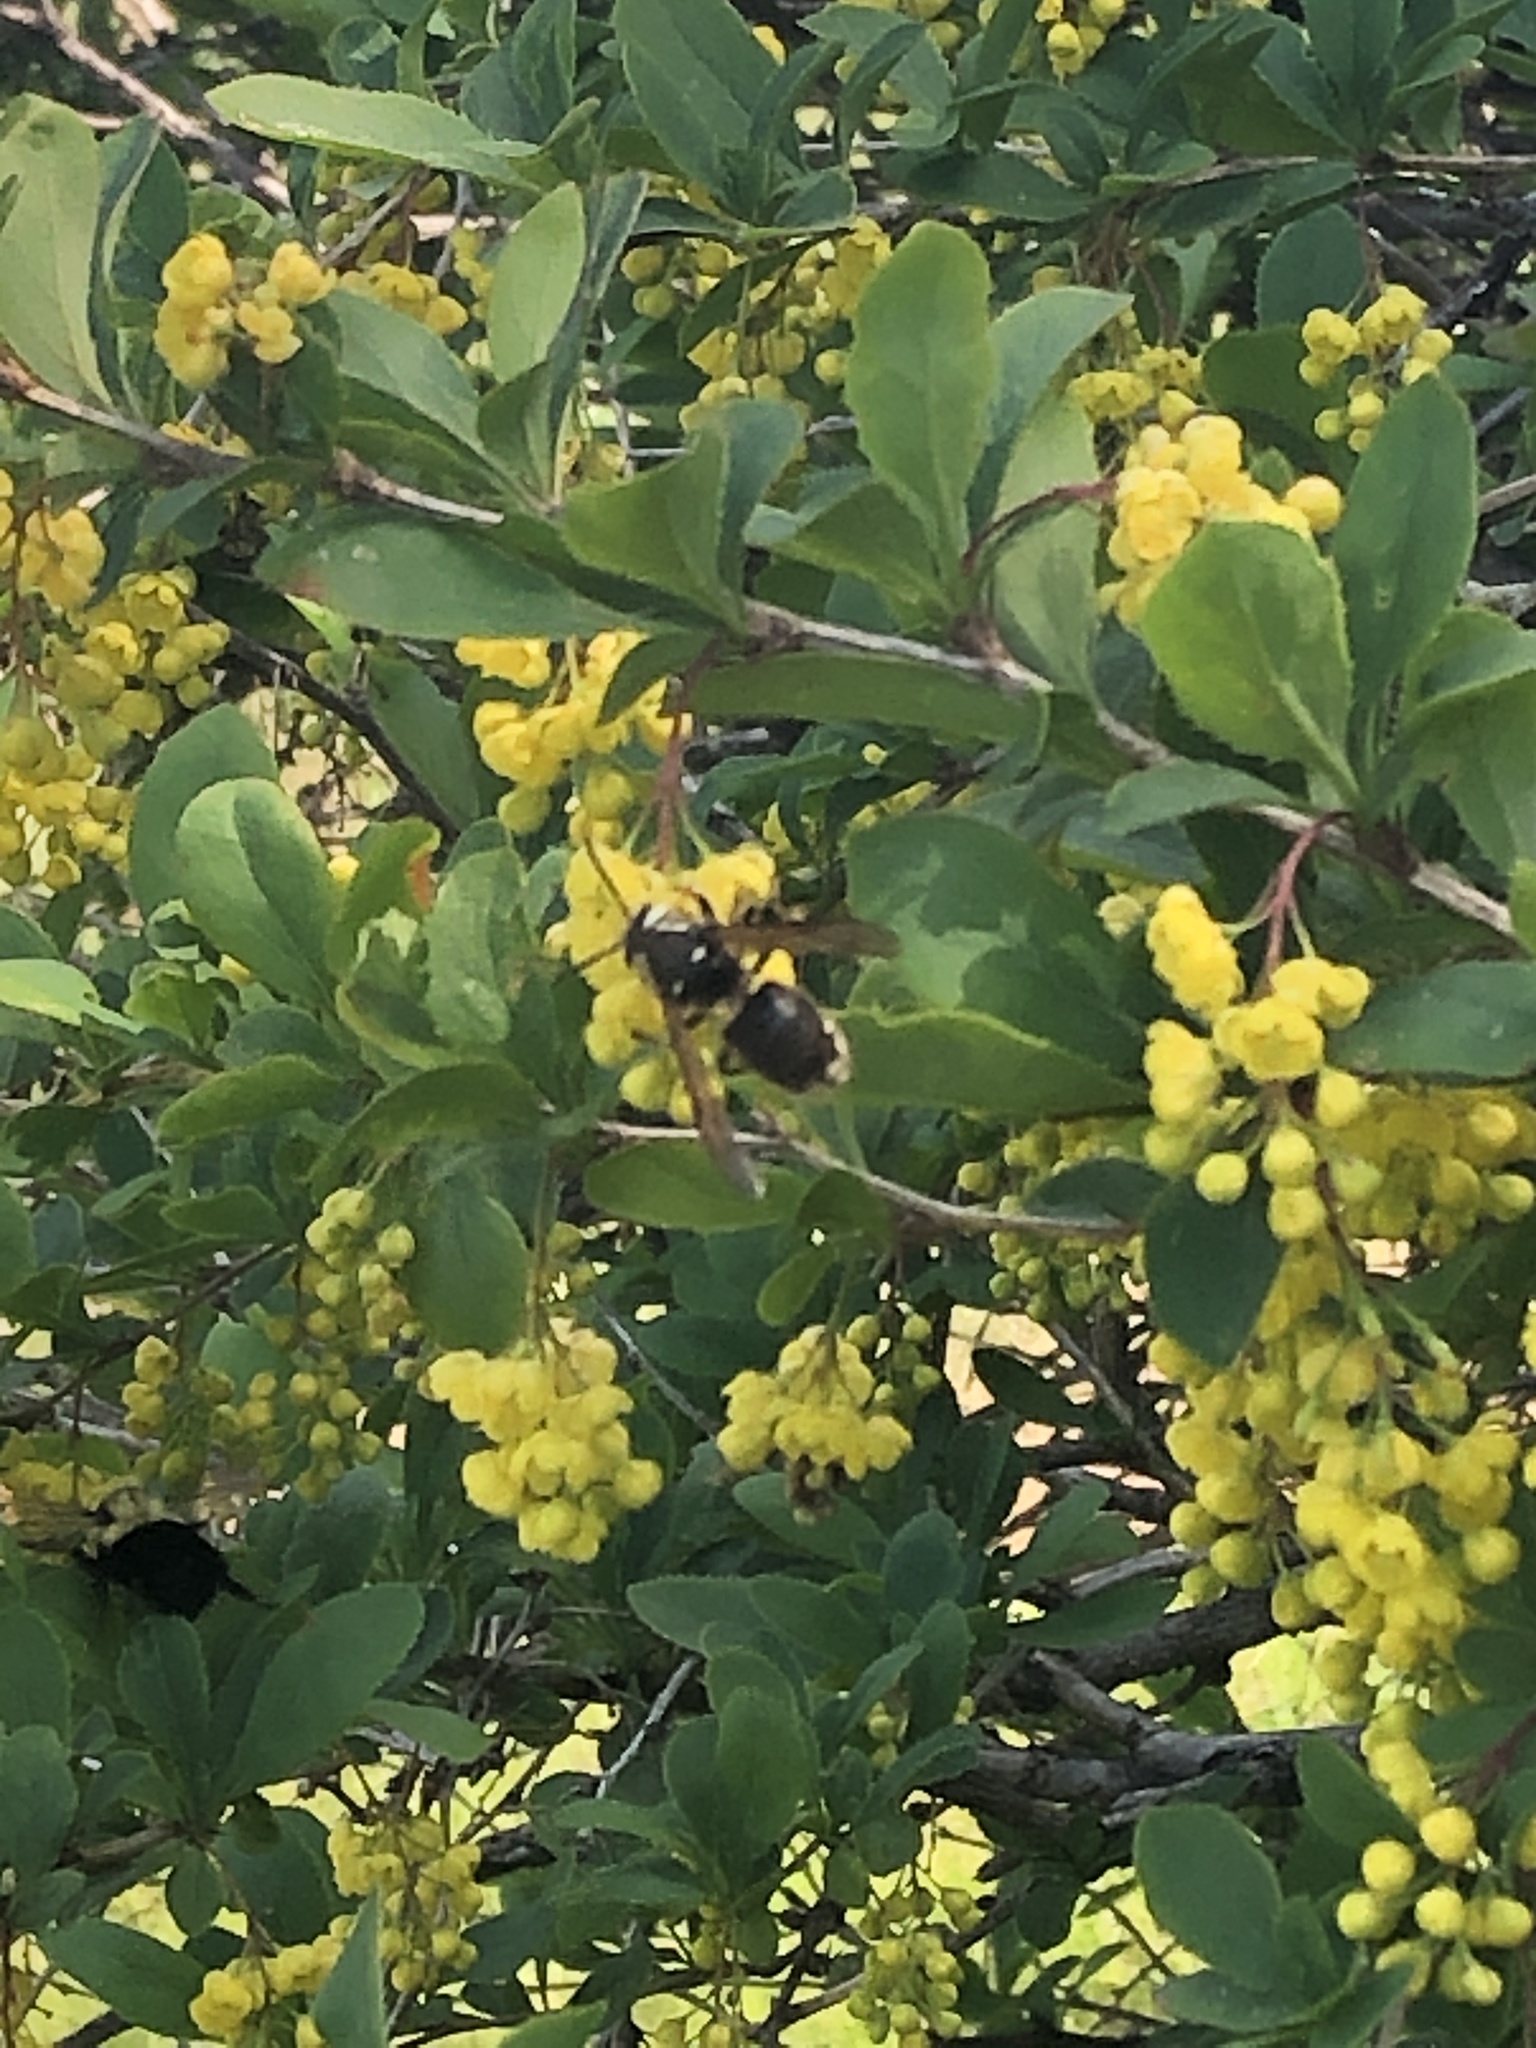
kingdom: Animalia
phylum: Arthropoda
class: Insecta
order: Hymenoptera
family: Vespidae
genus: Dolichovespula
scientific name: Dolichovespula maculata
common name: Bald-faced hornet
